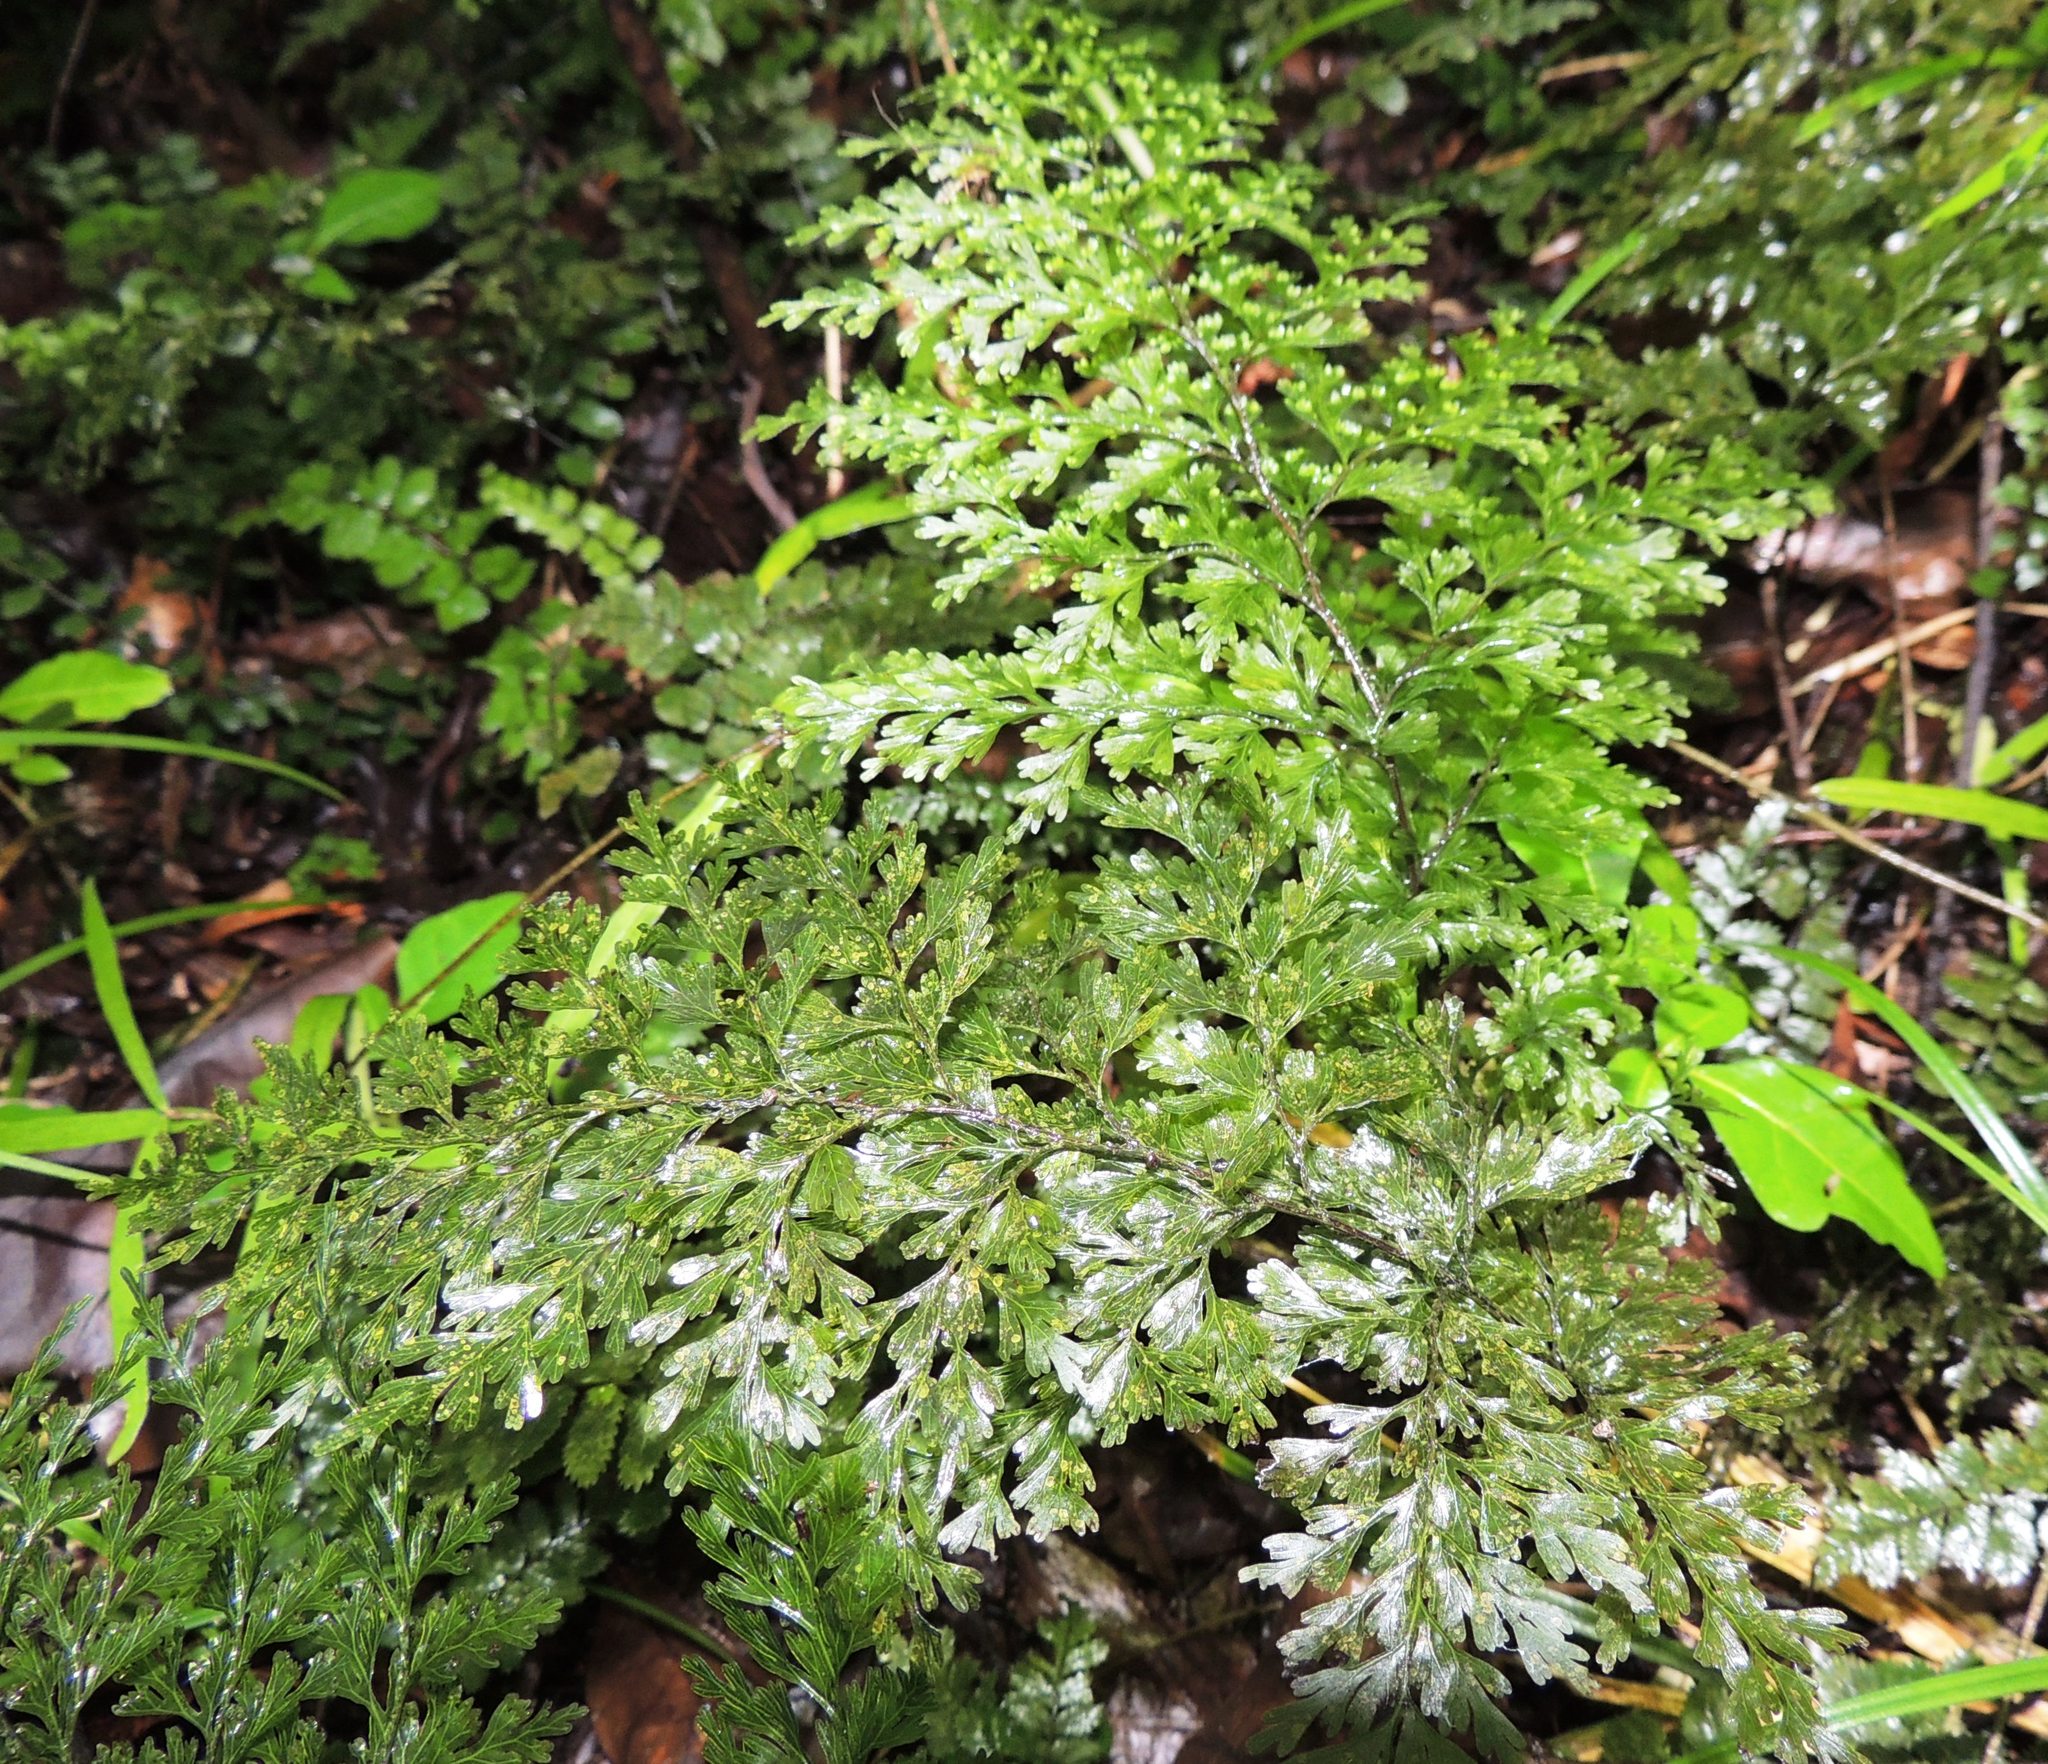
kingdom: Plantae
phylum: Tracheophyta
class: Polypodiopsida
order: Hymenophyllales
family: Hymenophyllaceae
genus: Hymenophyllum
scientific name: Hymenophyllum demissum
